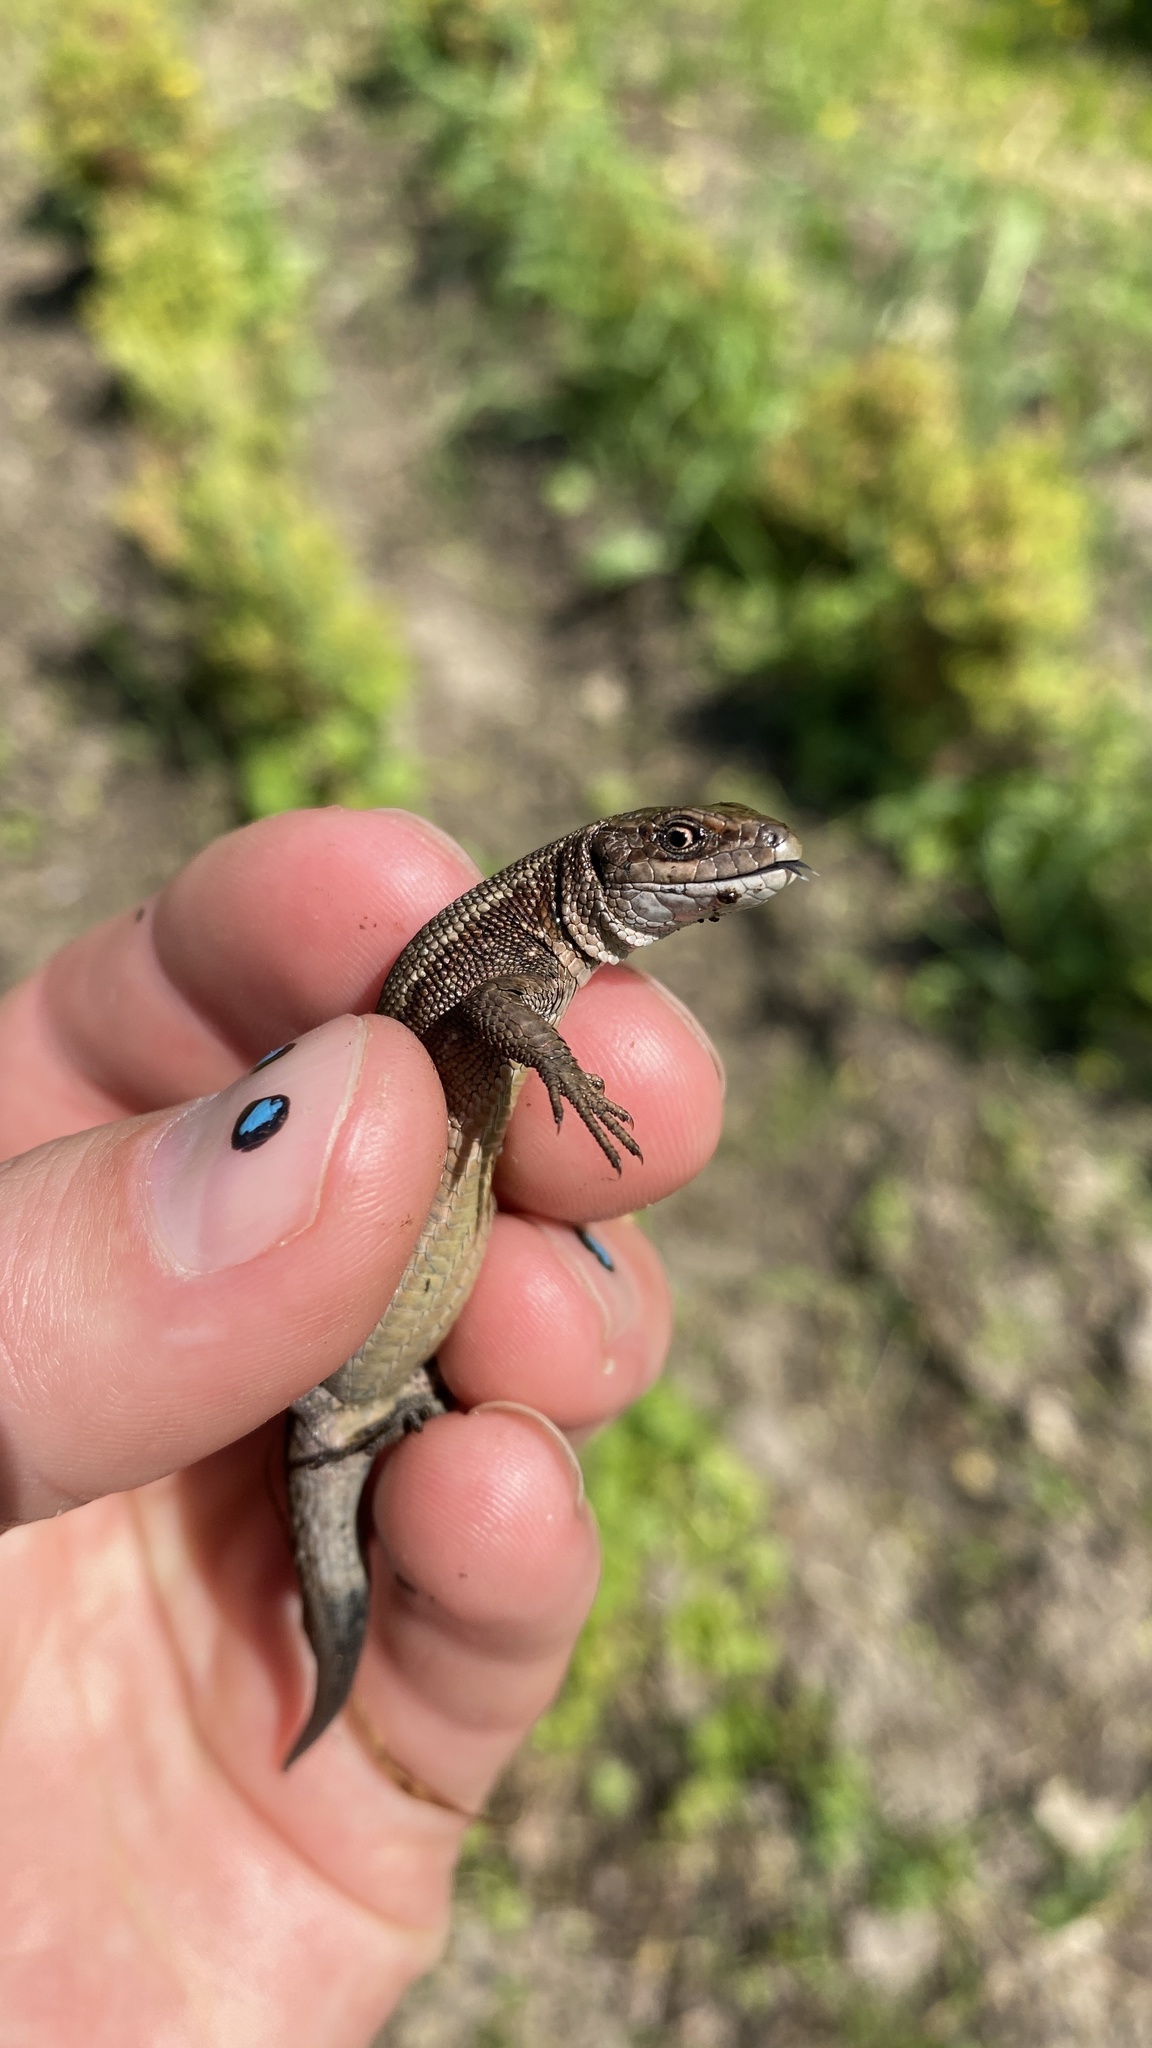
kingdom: Animalia
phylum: Chordata
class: Squamata
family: Lacertidae
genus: Zootoca
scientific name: Zootoca vivipara
